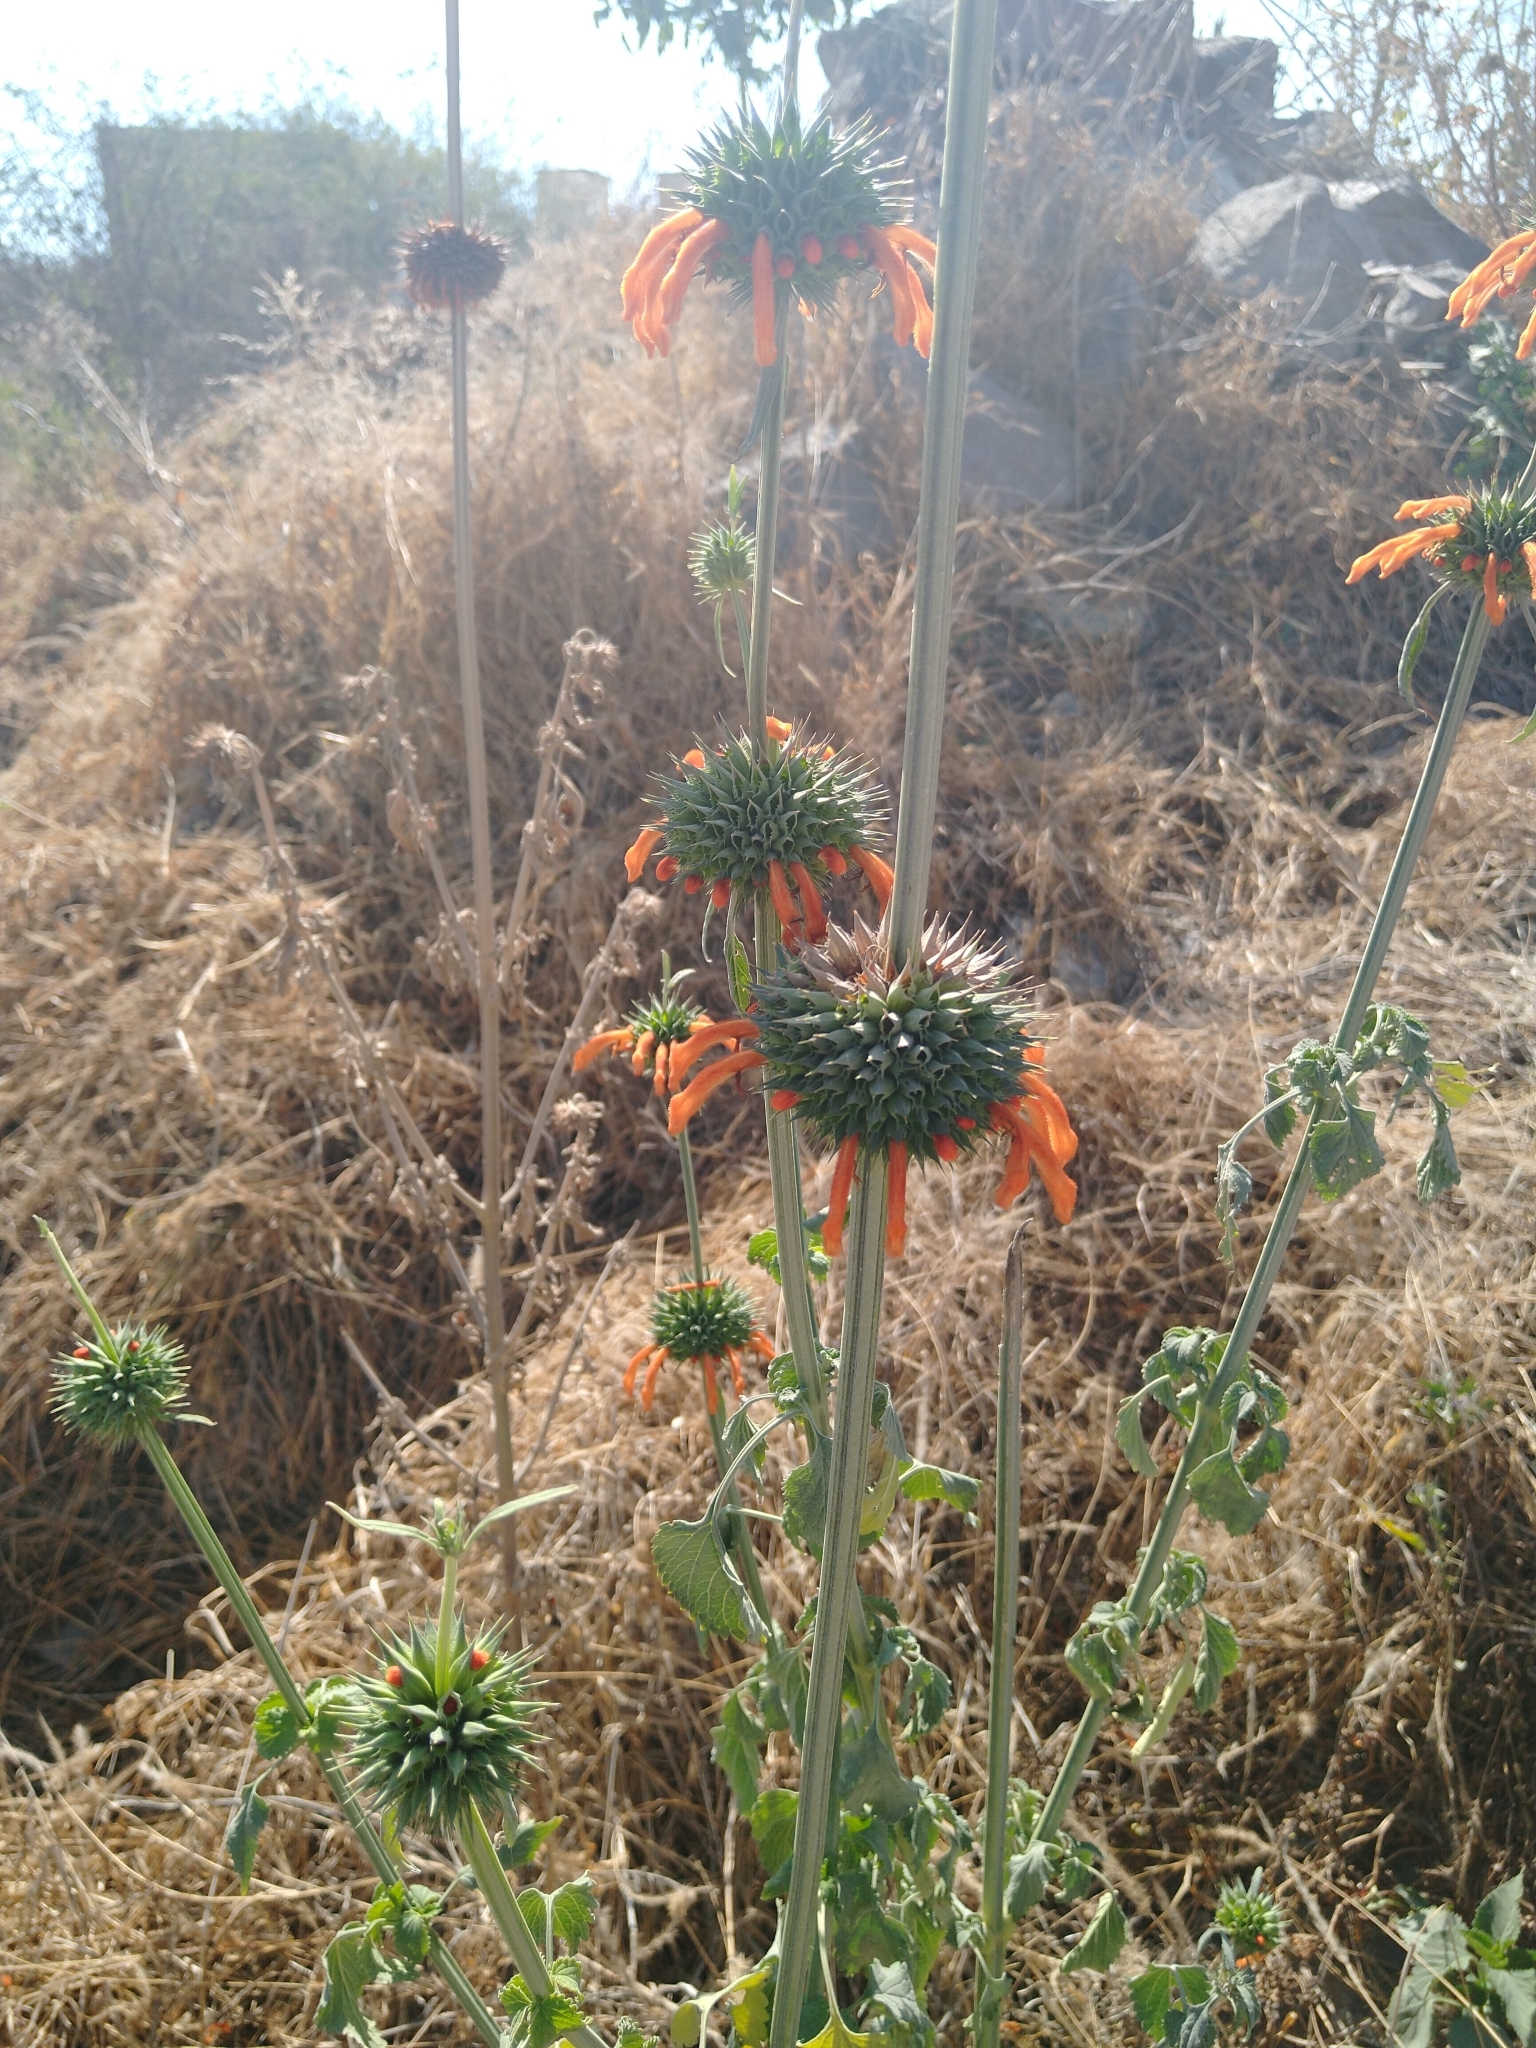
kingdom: Plantae
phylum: Tracheophyta
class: Magnoliopsida
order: Lamiales
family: Lamiaceae
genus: Leonotis
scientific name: Leonotis nepetifolia
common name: Christmas candlestick
